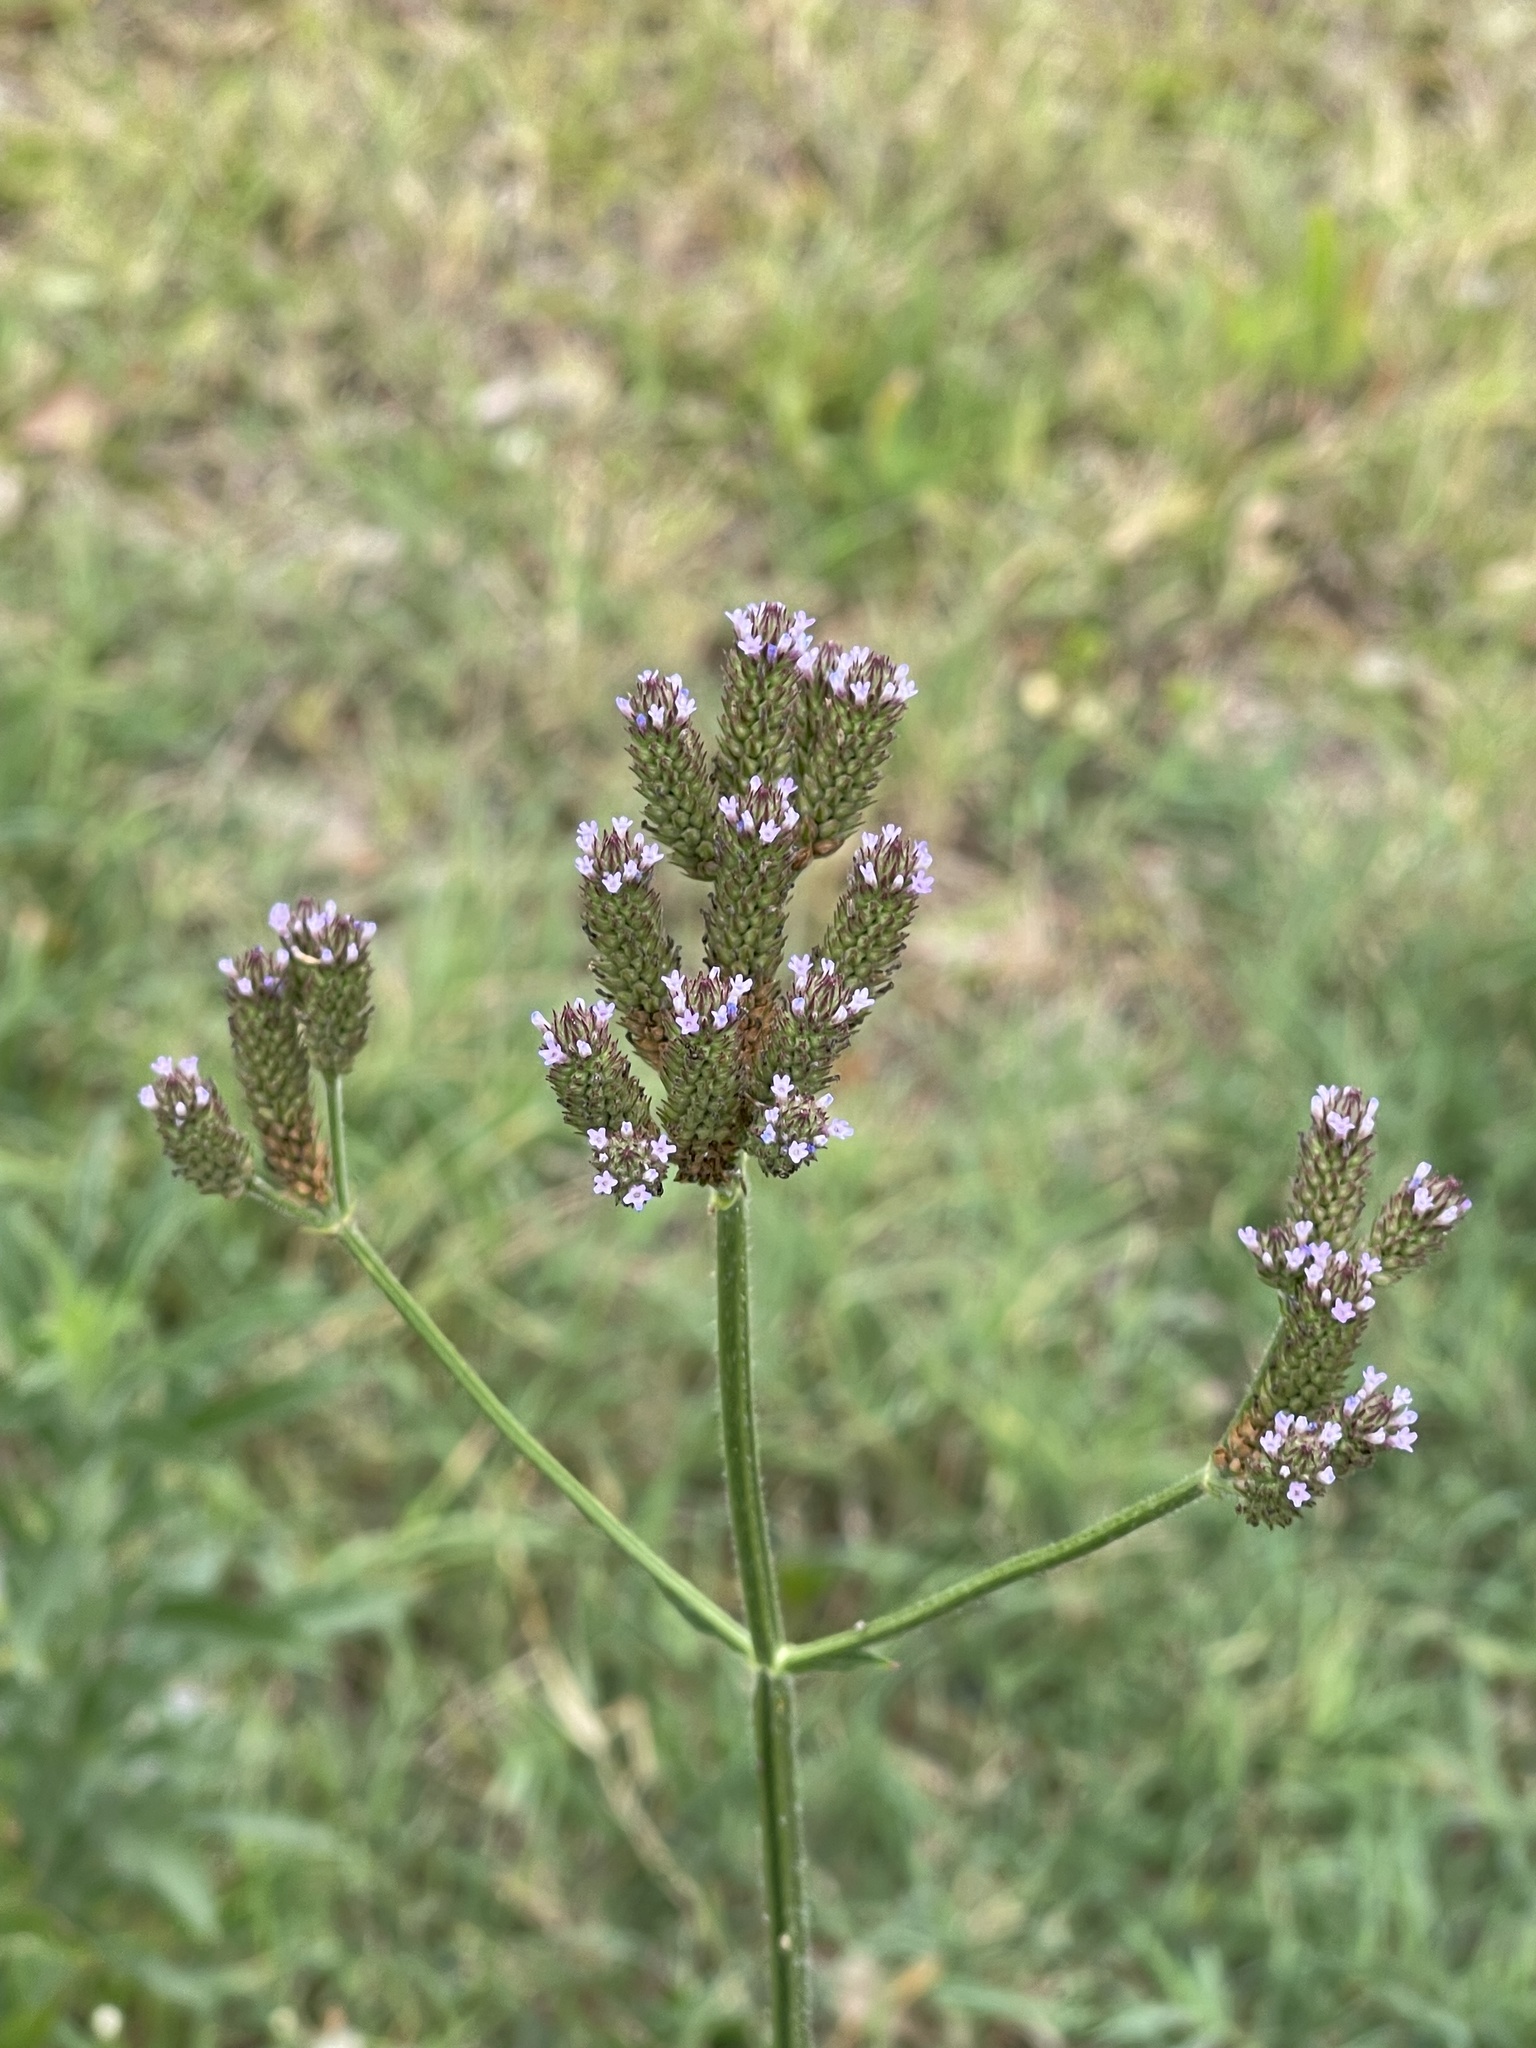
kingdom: Plantae
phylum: Tracheophyta
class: Magnoliopsida
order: Lamiales
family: Verbenaceae
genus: Verbena
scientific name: Verbena brasiliensis
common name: Brazilian vervain
